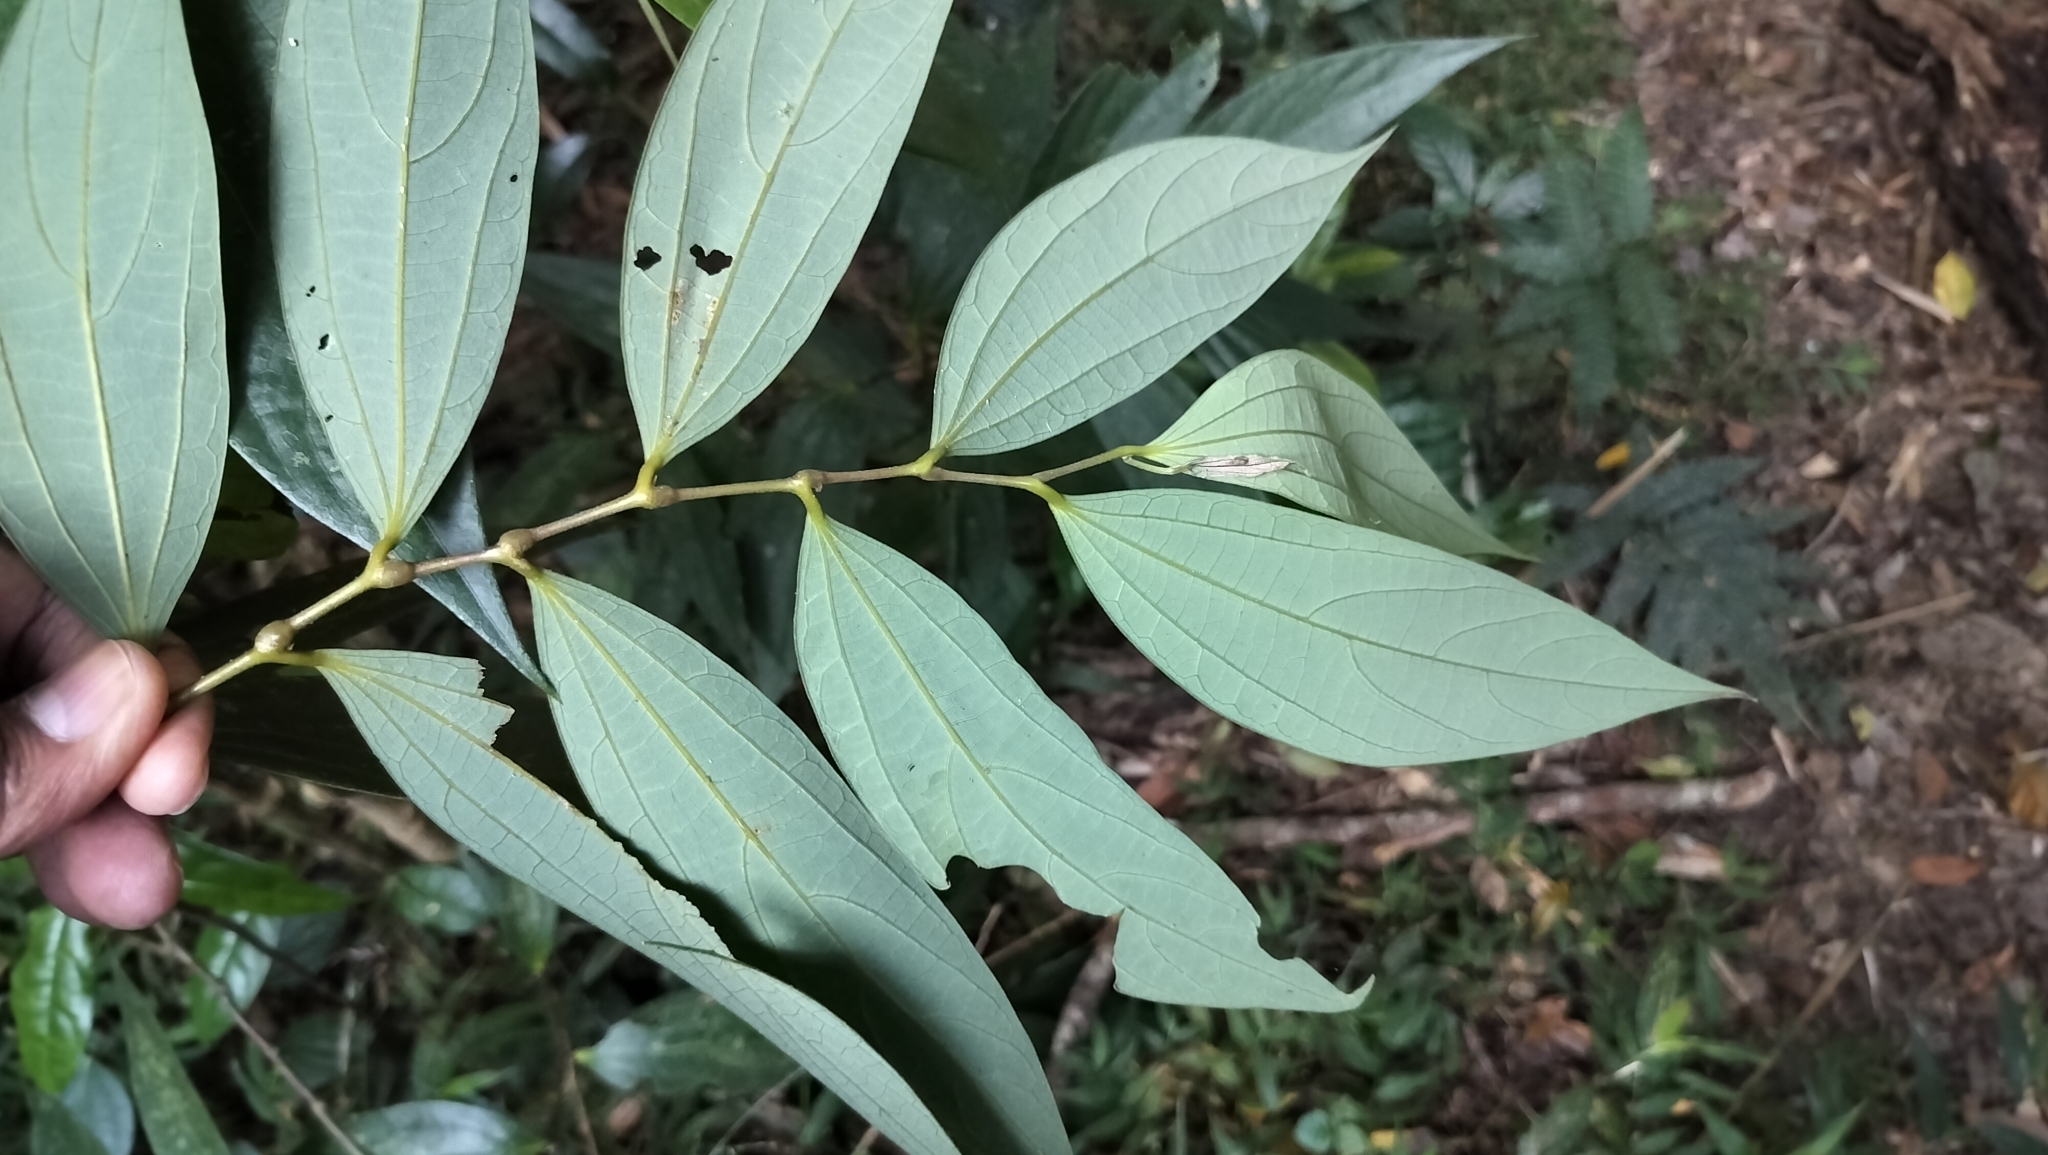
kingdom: Plantae
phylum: Tracheophyta
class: Magnoliopsida
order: Piperales
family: Aristolochiaceae
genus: Thottea
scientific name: Thottea siliquosa
